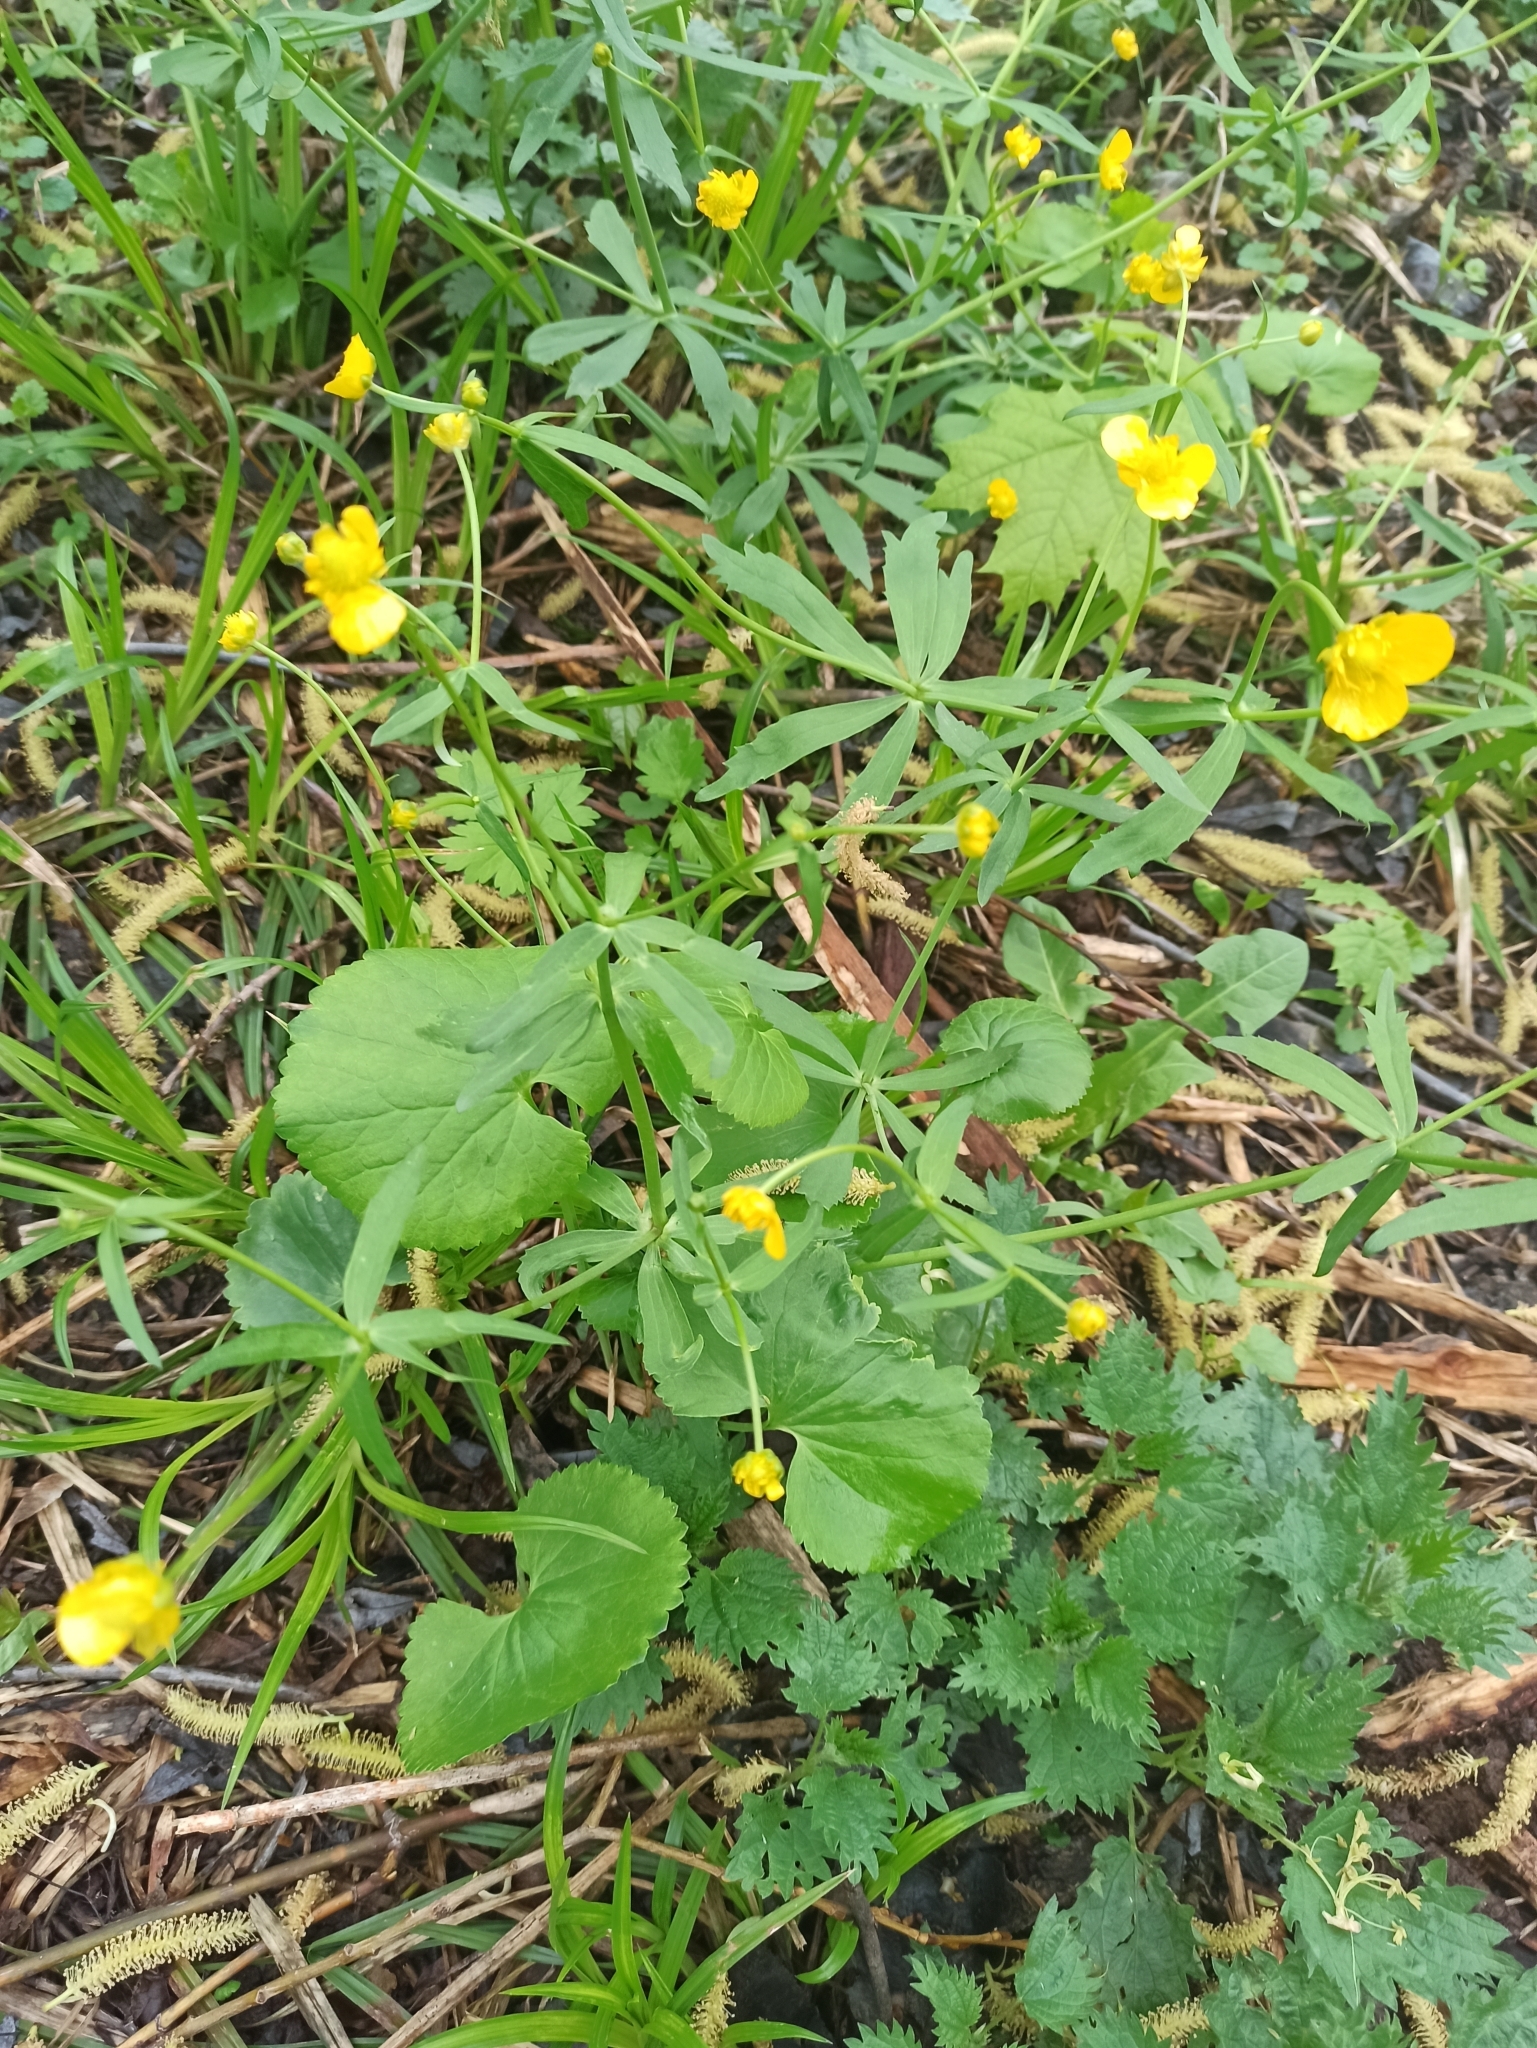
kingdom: Plantae
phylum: Tracheophyta
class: Magnoliopsida
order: Ranunculales
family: Ranunculaceae
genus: Ranunculus
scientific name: Ranunculus cassubicus
